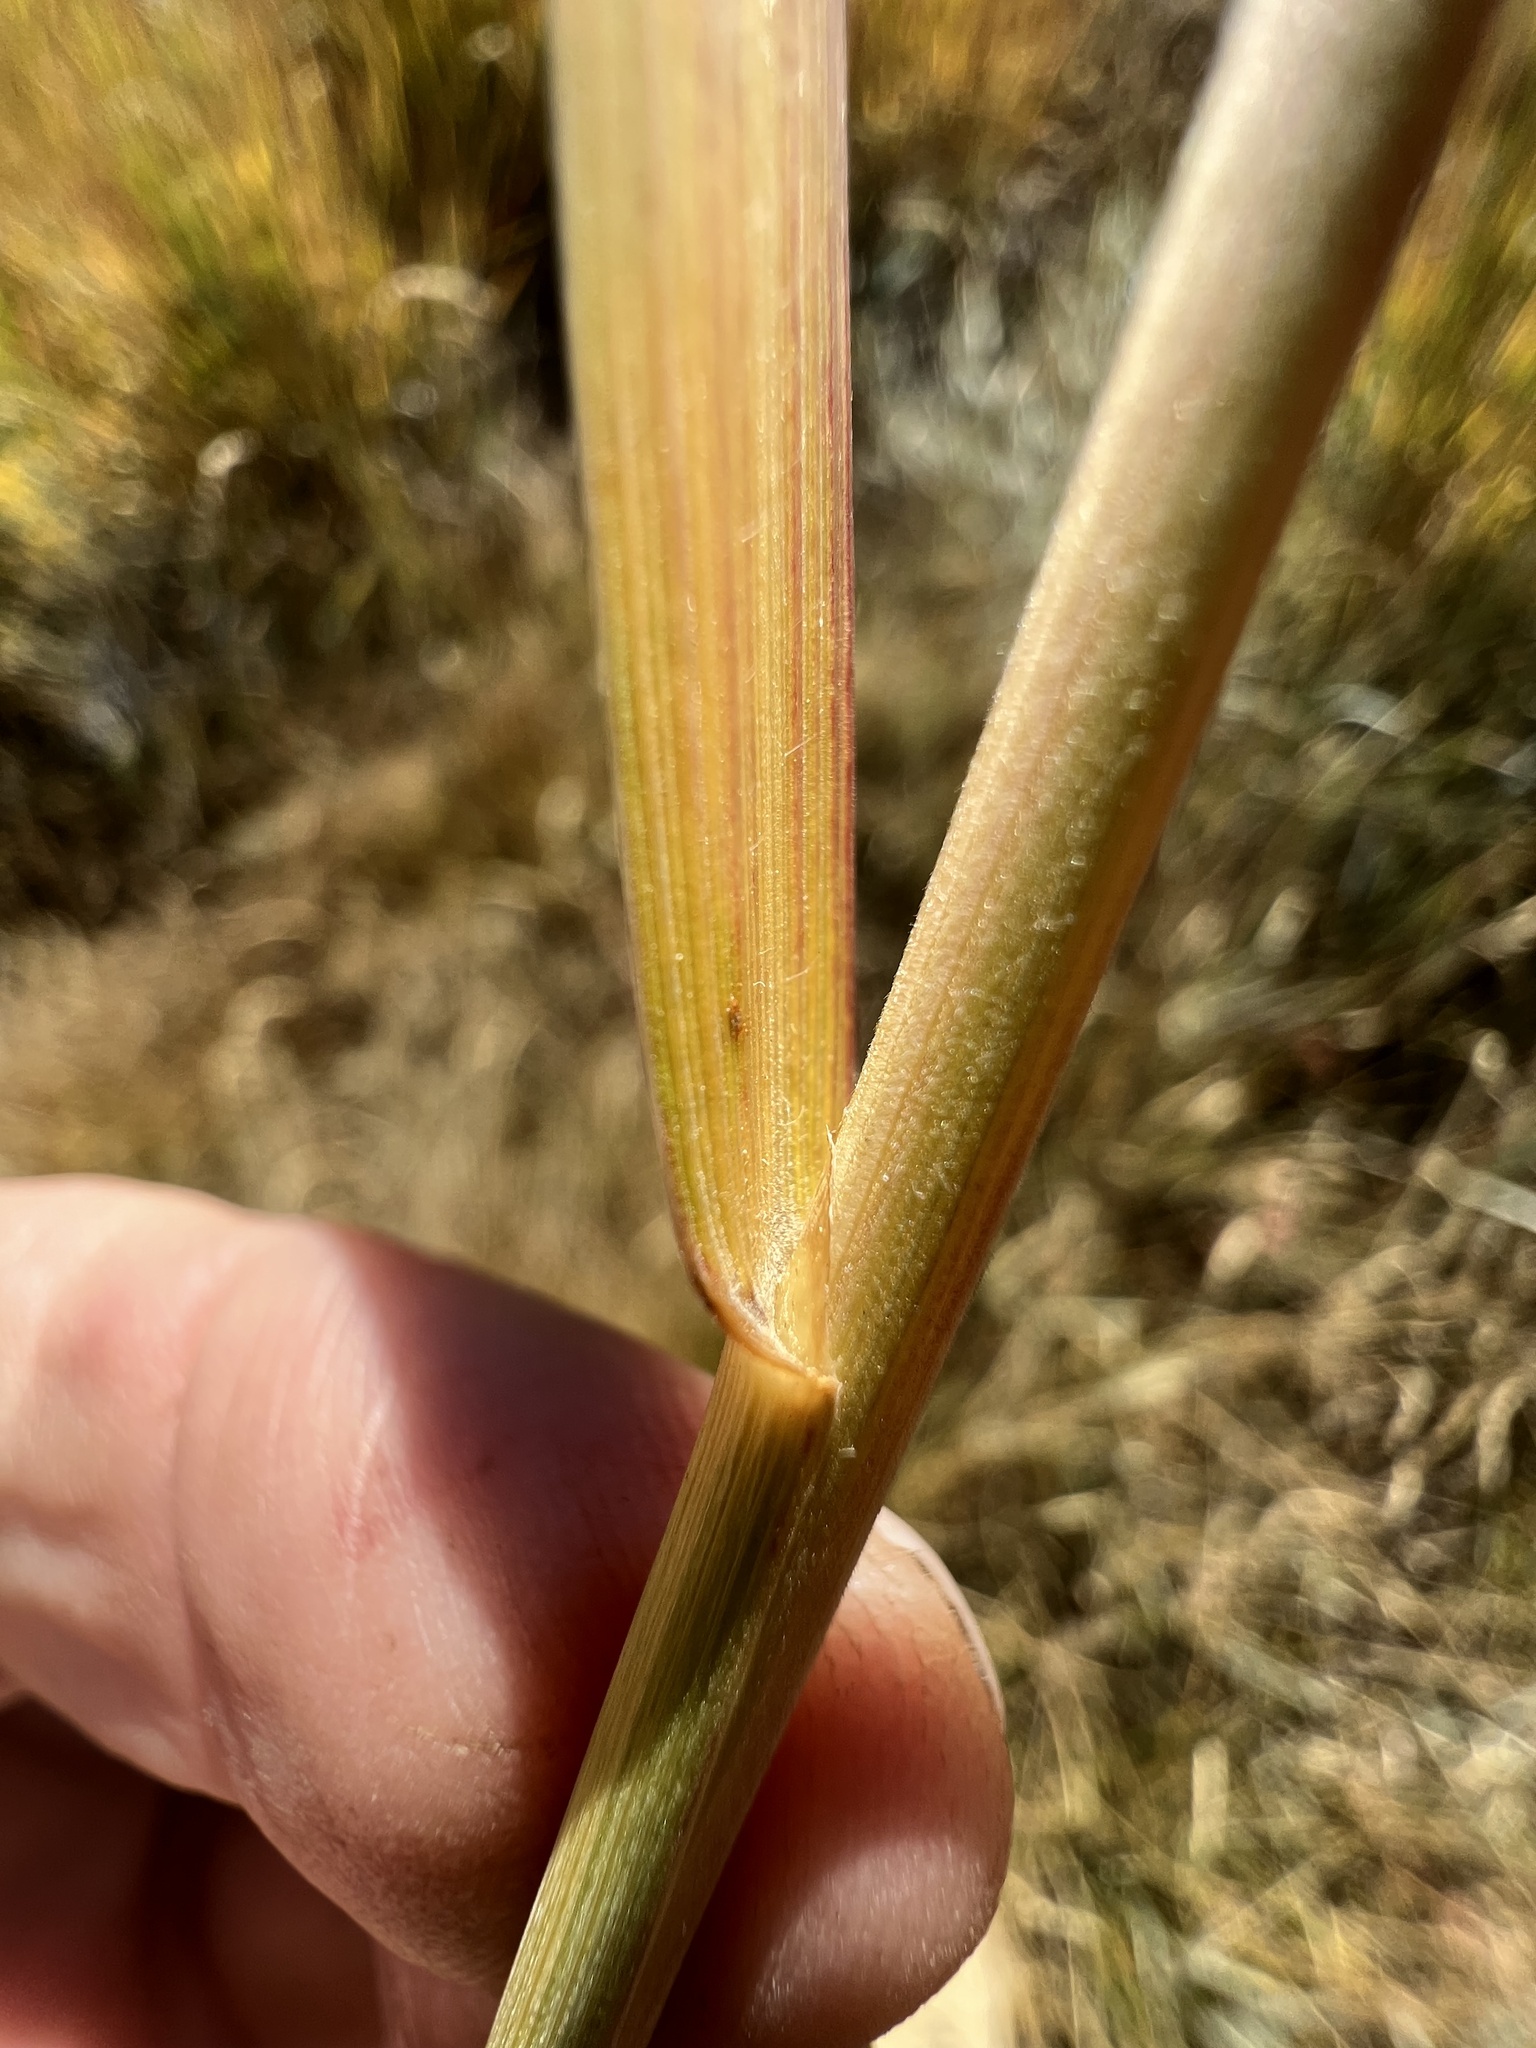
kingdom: Plantae
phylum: Tracheophyta
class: Liliopsida
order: Poales
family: Poaceae
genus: Leymus
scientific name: Leymus cinereus
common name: Basin wild rye
